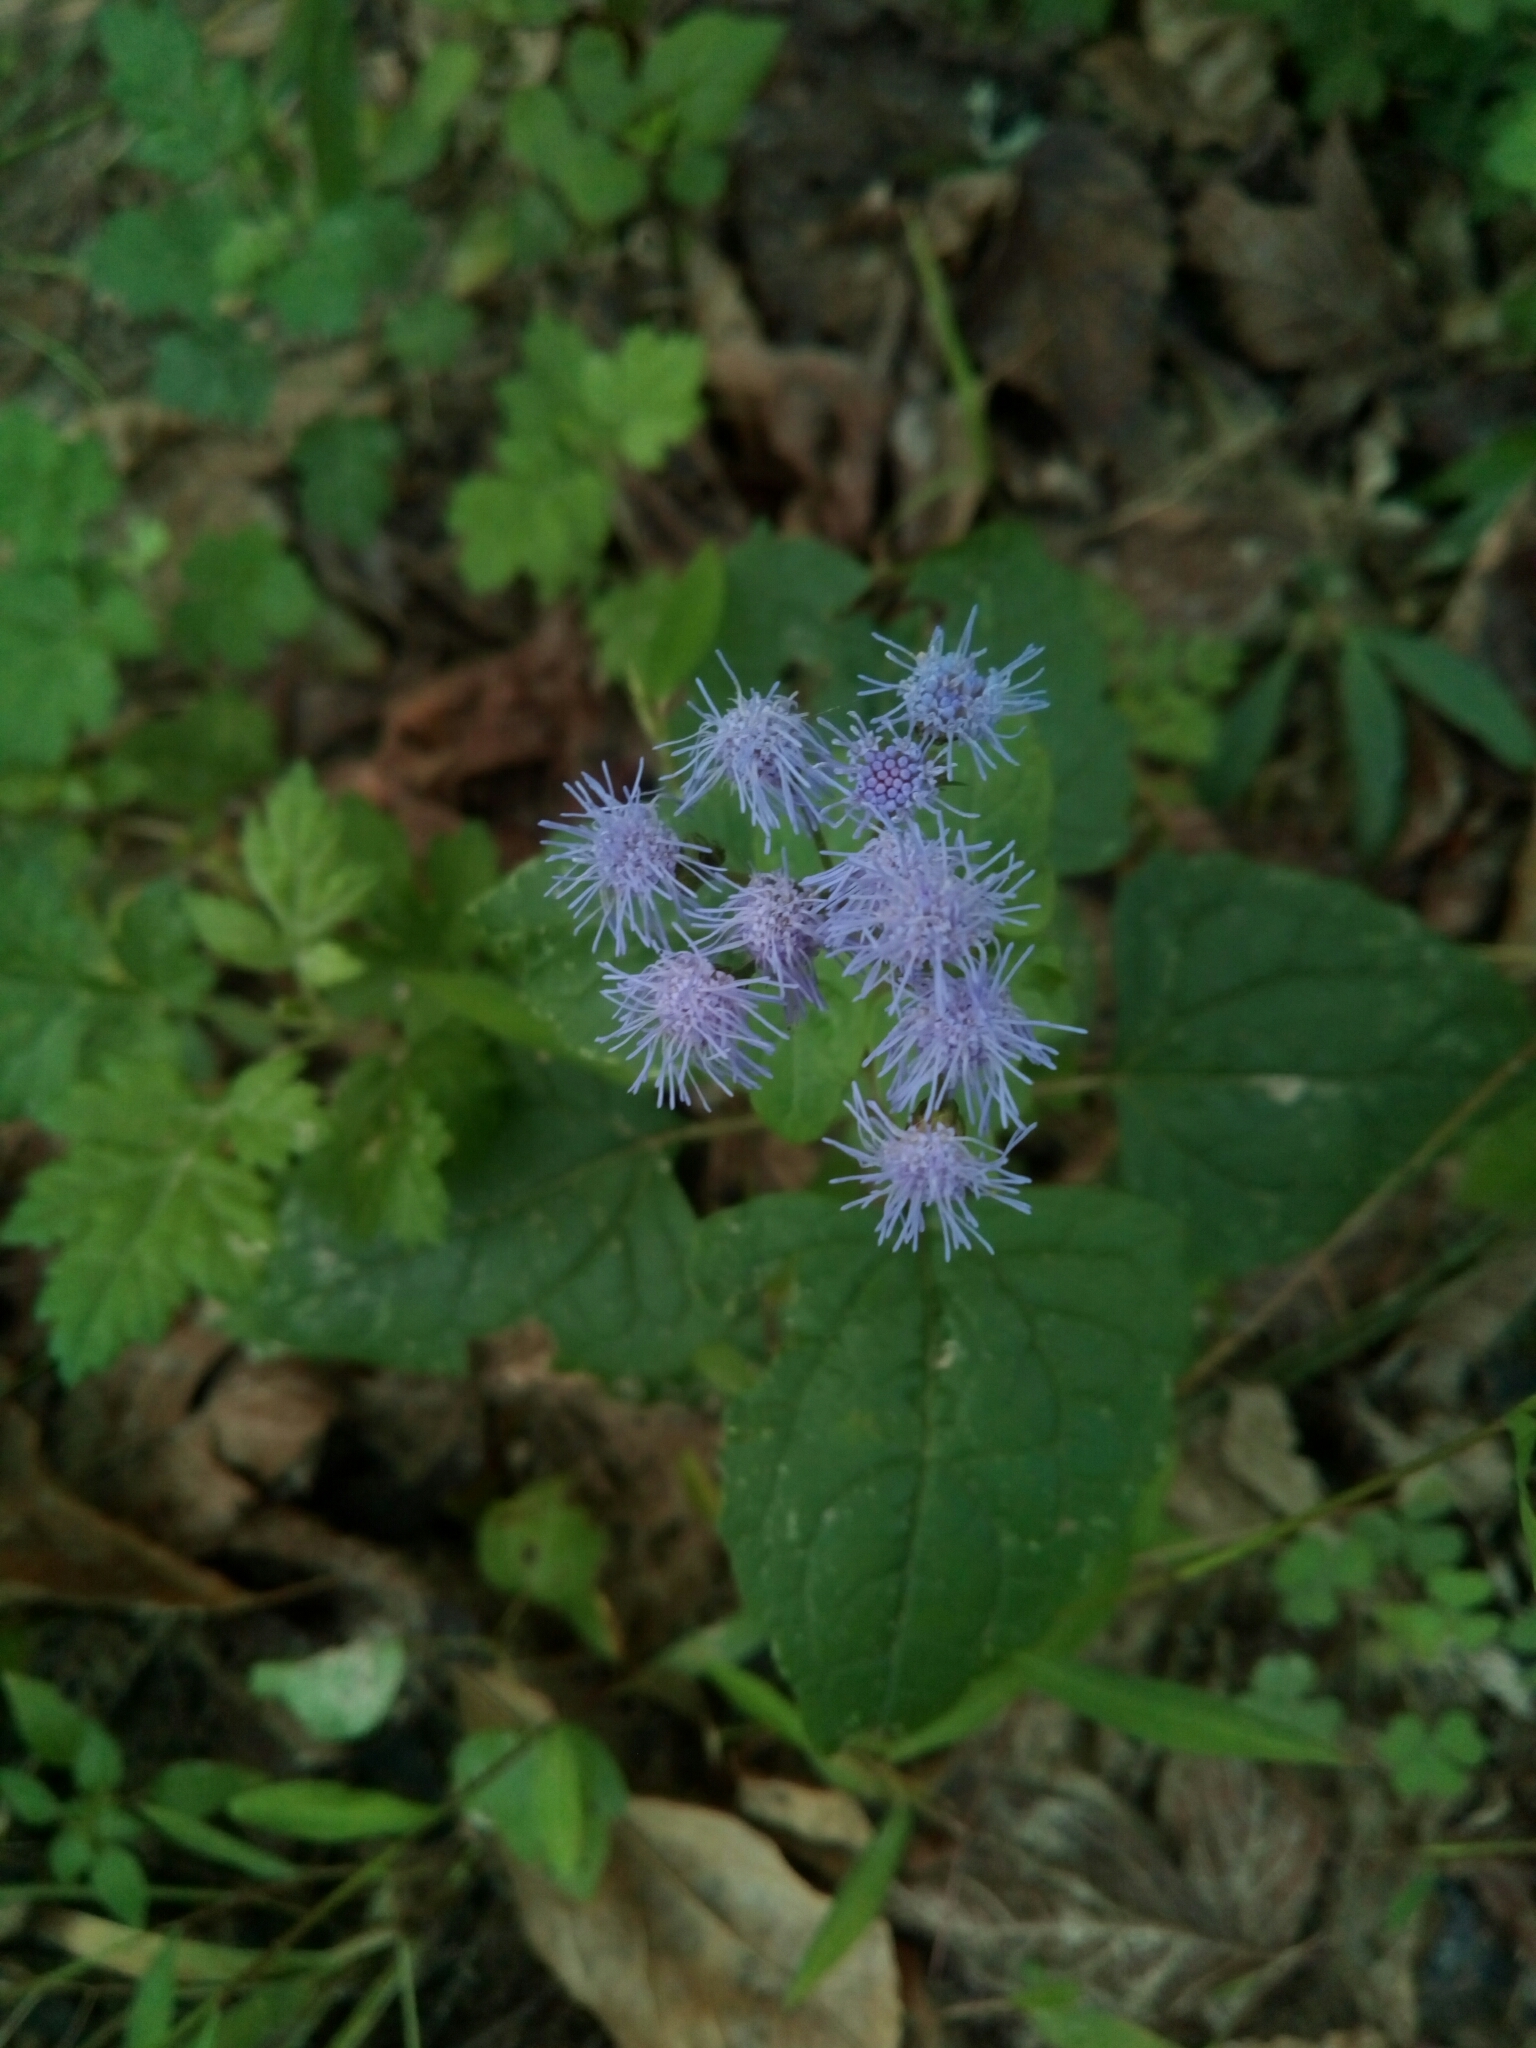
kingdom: Plantae
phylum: Tracheophyta
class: Magnoliopsida
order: Asterales
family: Asteraceae
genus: Conoclinium
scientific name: Conoclinium coelestinum
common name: Blue mistflower
